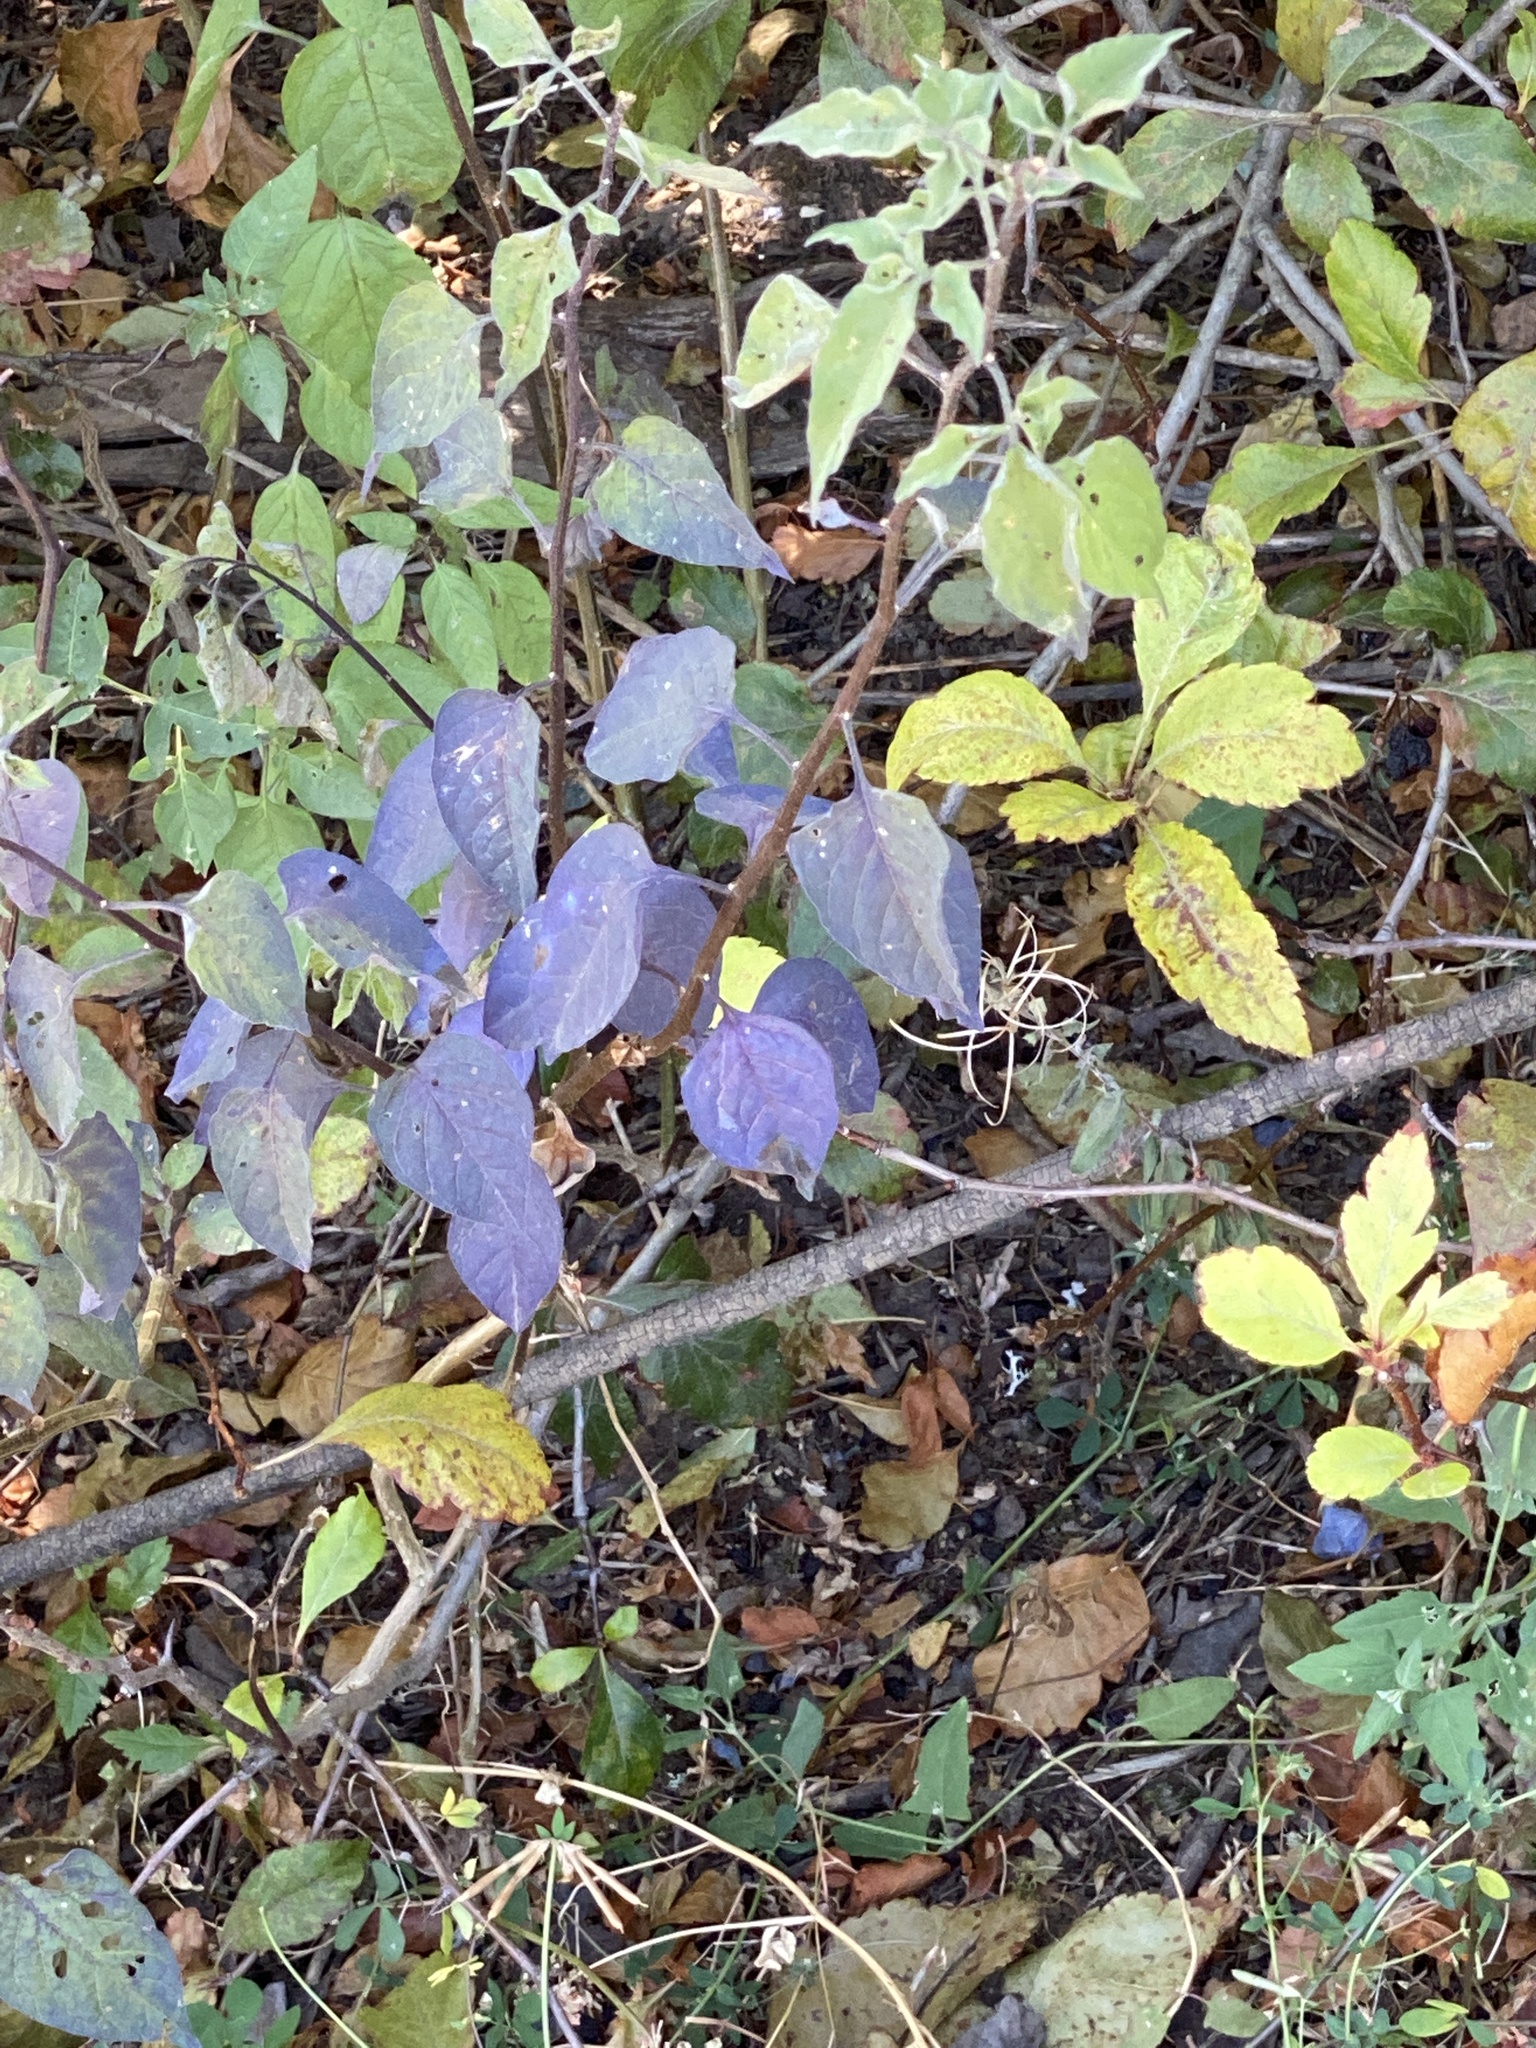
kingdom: Plantae
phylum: Tracheophyta
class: Magnoliopsida
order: Solanales
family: Solanaceae
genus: Solanum
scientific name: Solanum dulcamara
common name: Climbing nightshade
